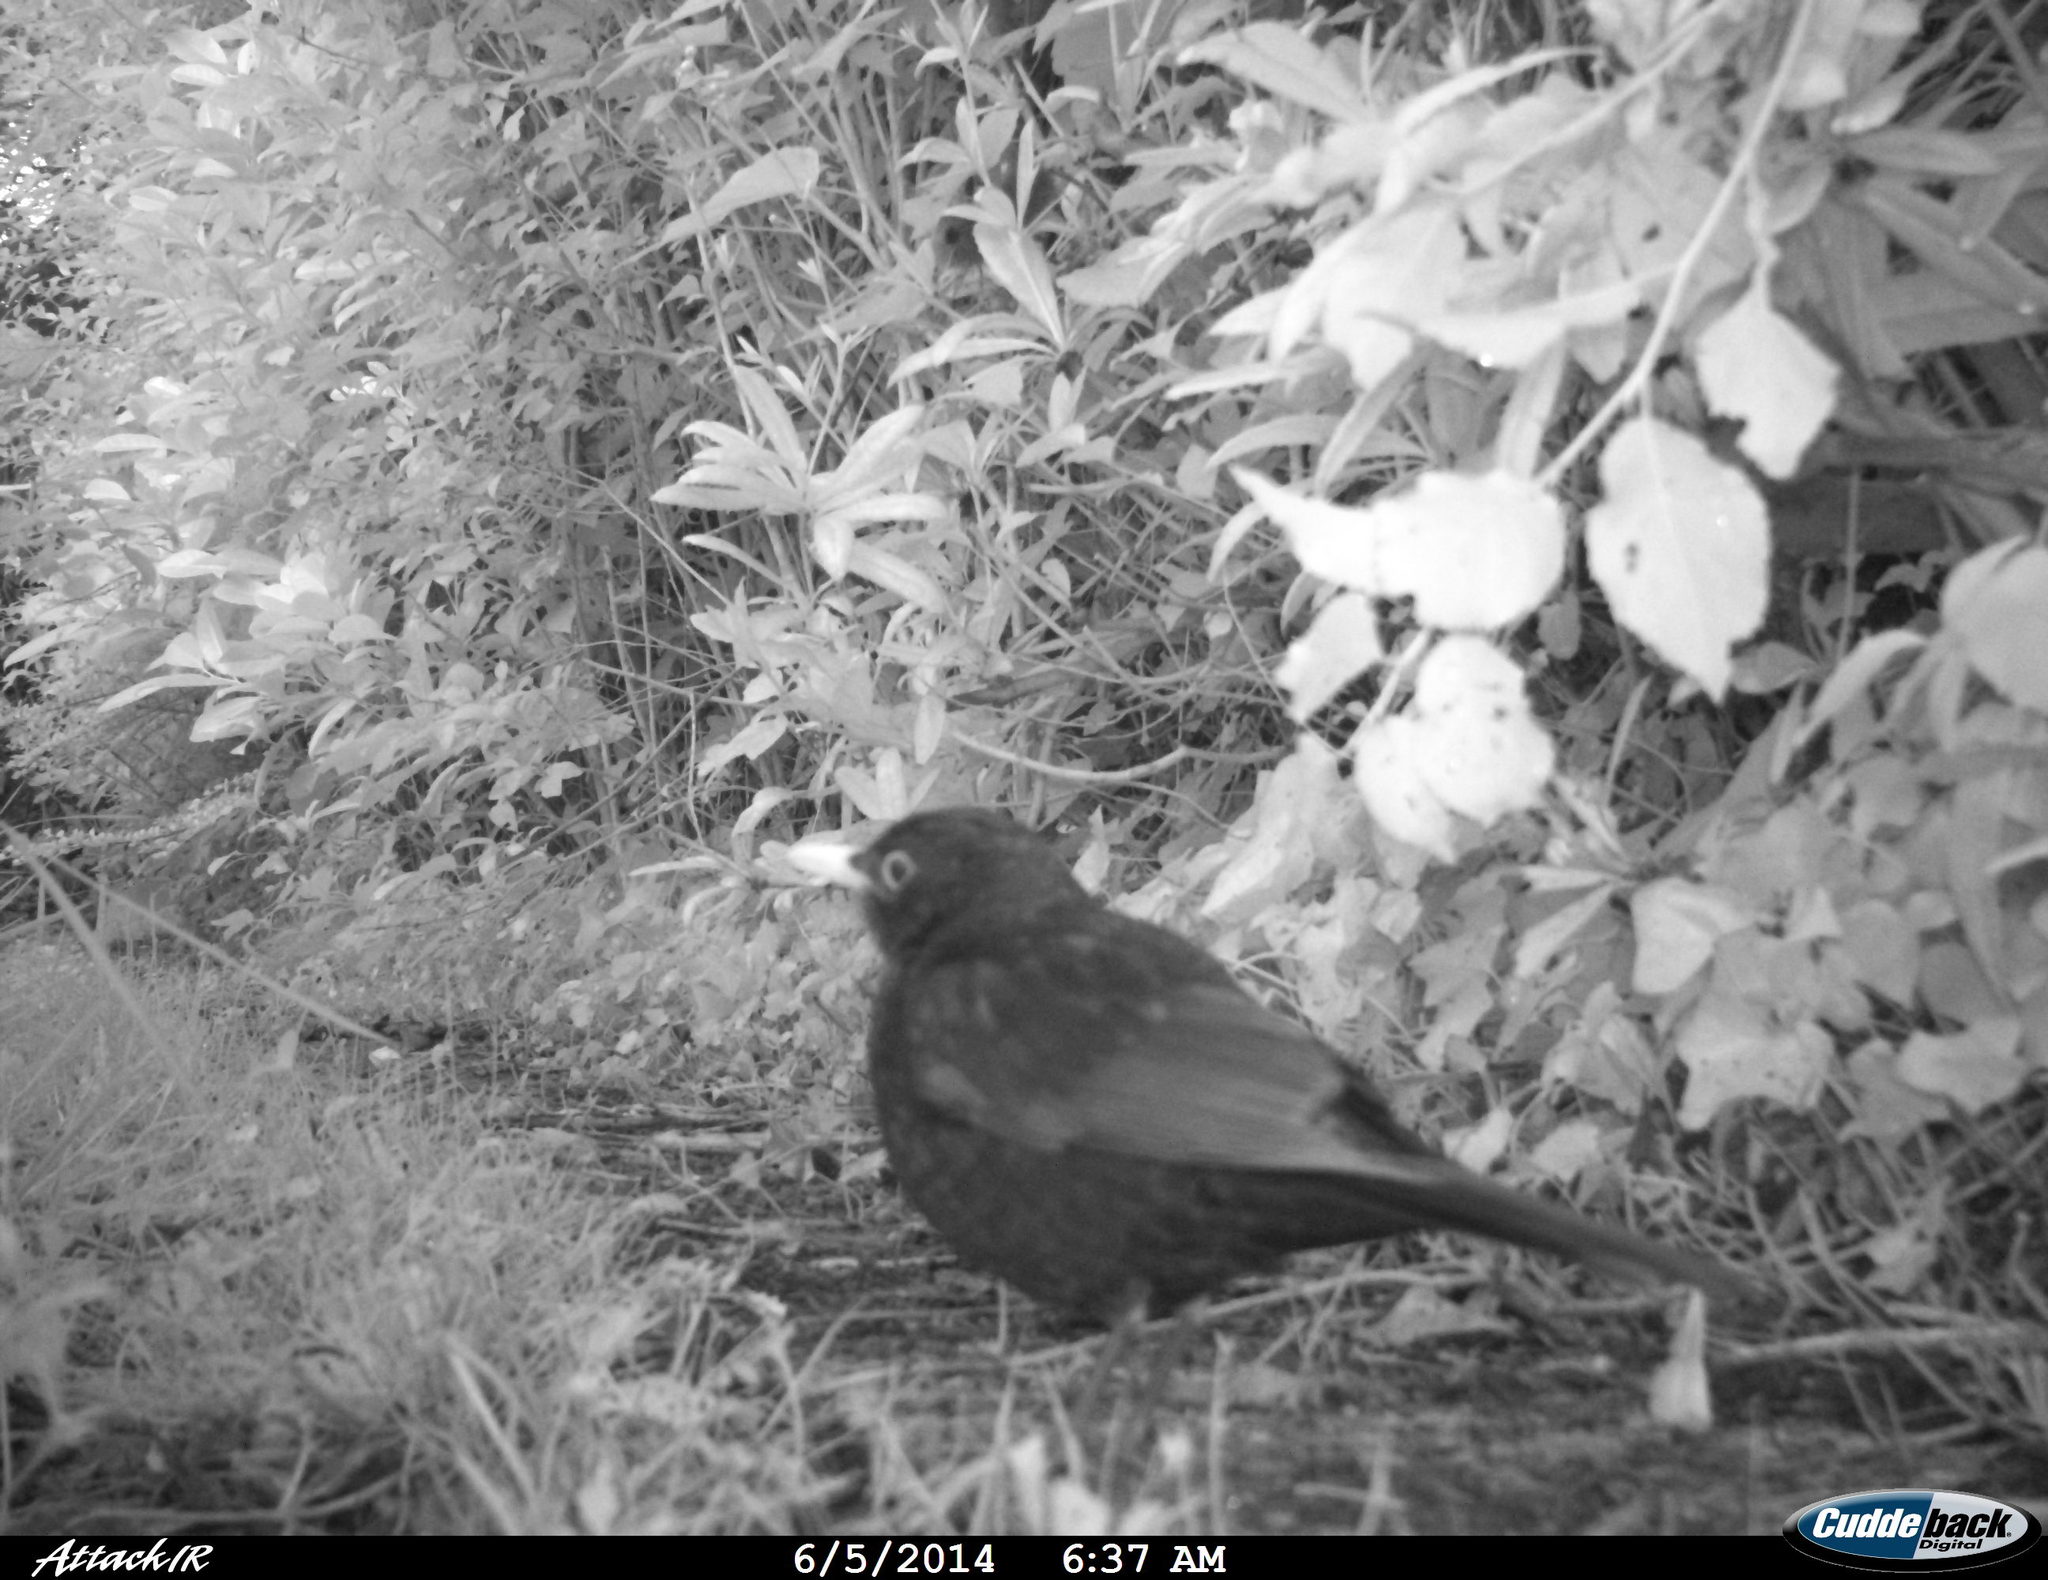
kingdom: Animalia
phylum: Chordata
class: Aves
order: Passeriformes
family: Turdidae
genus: Turdus
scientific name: Turdus merula
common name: Common blackbird
